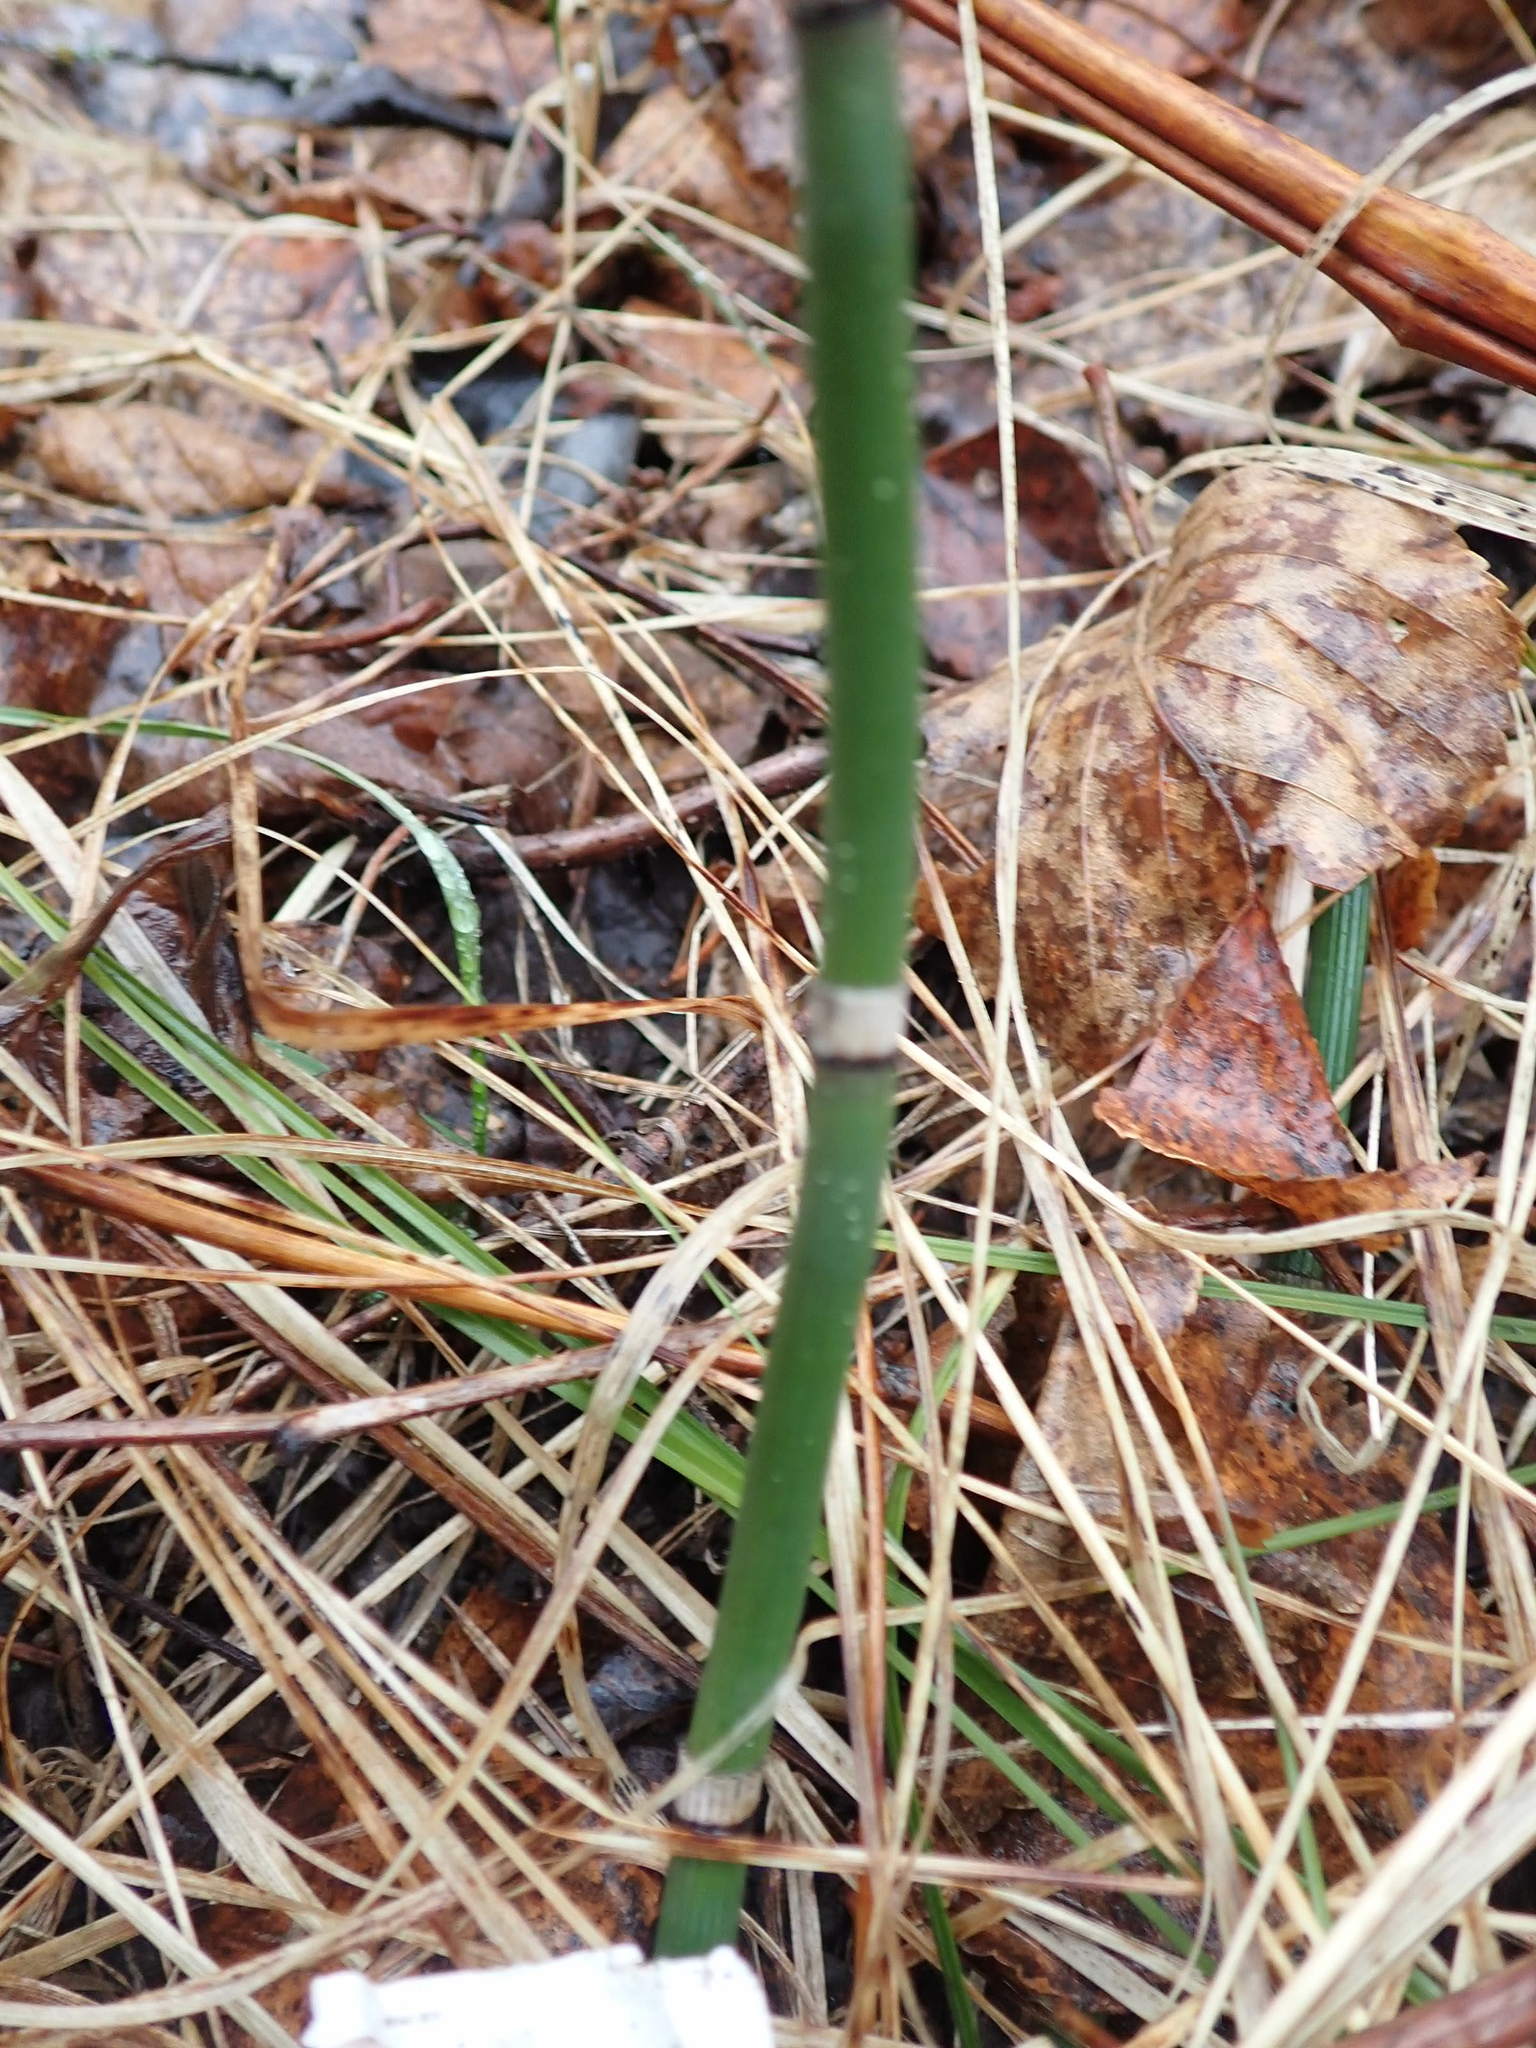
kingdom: Plantae
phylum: Tracheophyta
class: Polypodiopsida
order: Equisetales
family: Equisetaceae
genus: Equisetum
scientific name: Equisetum praealtum
